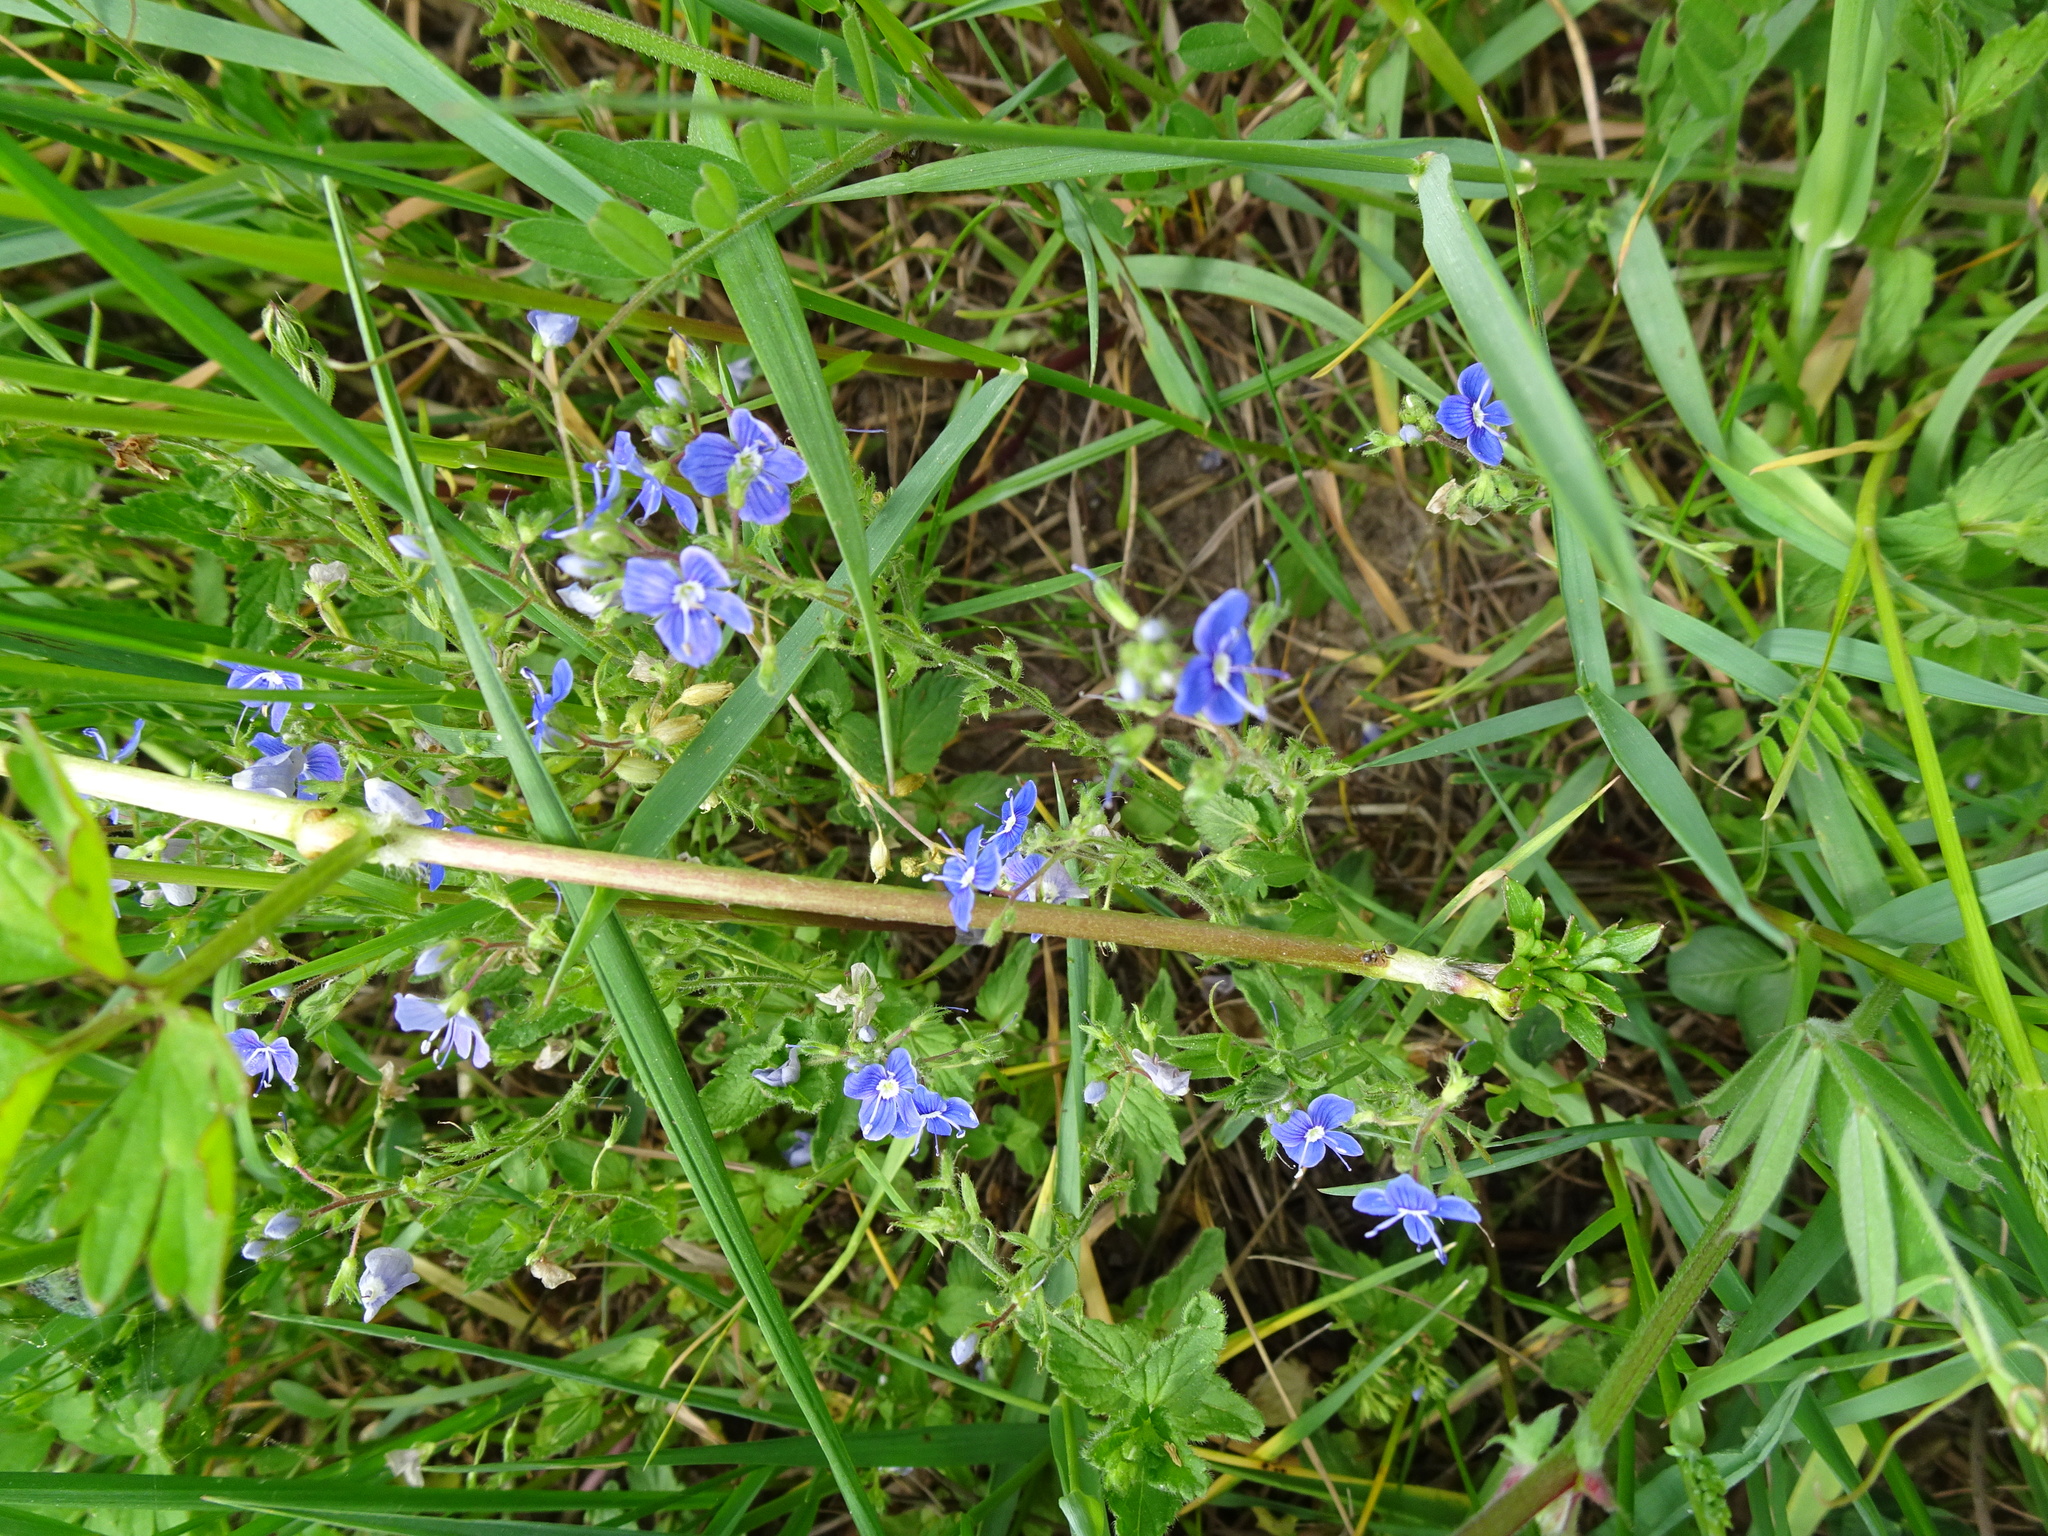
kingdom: Plantae
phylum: Tracheophyta
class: Magnoliopsida
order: Lamiales
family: Plantaginaceae
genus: Veronica
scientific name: Veronica chamaedrys
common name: Germander speedwell
